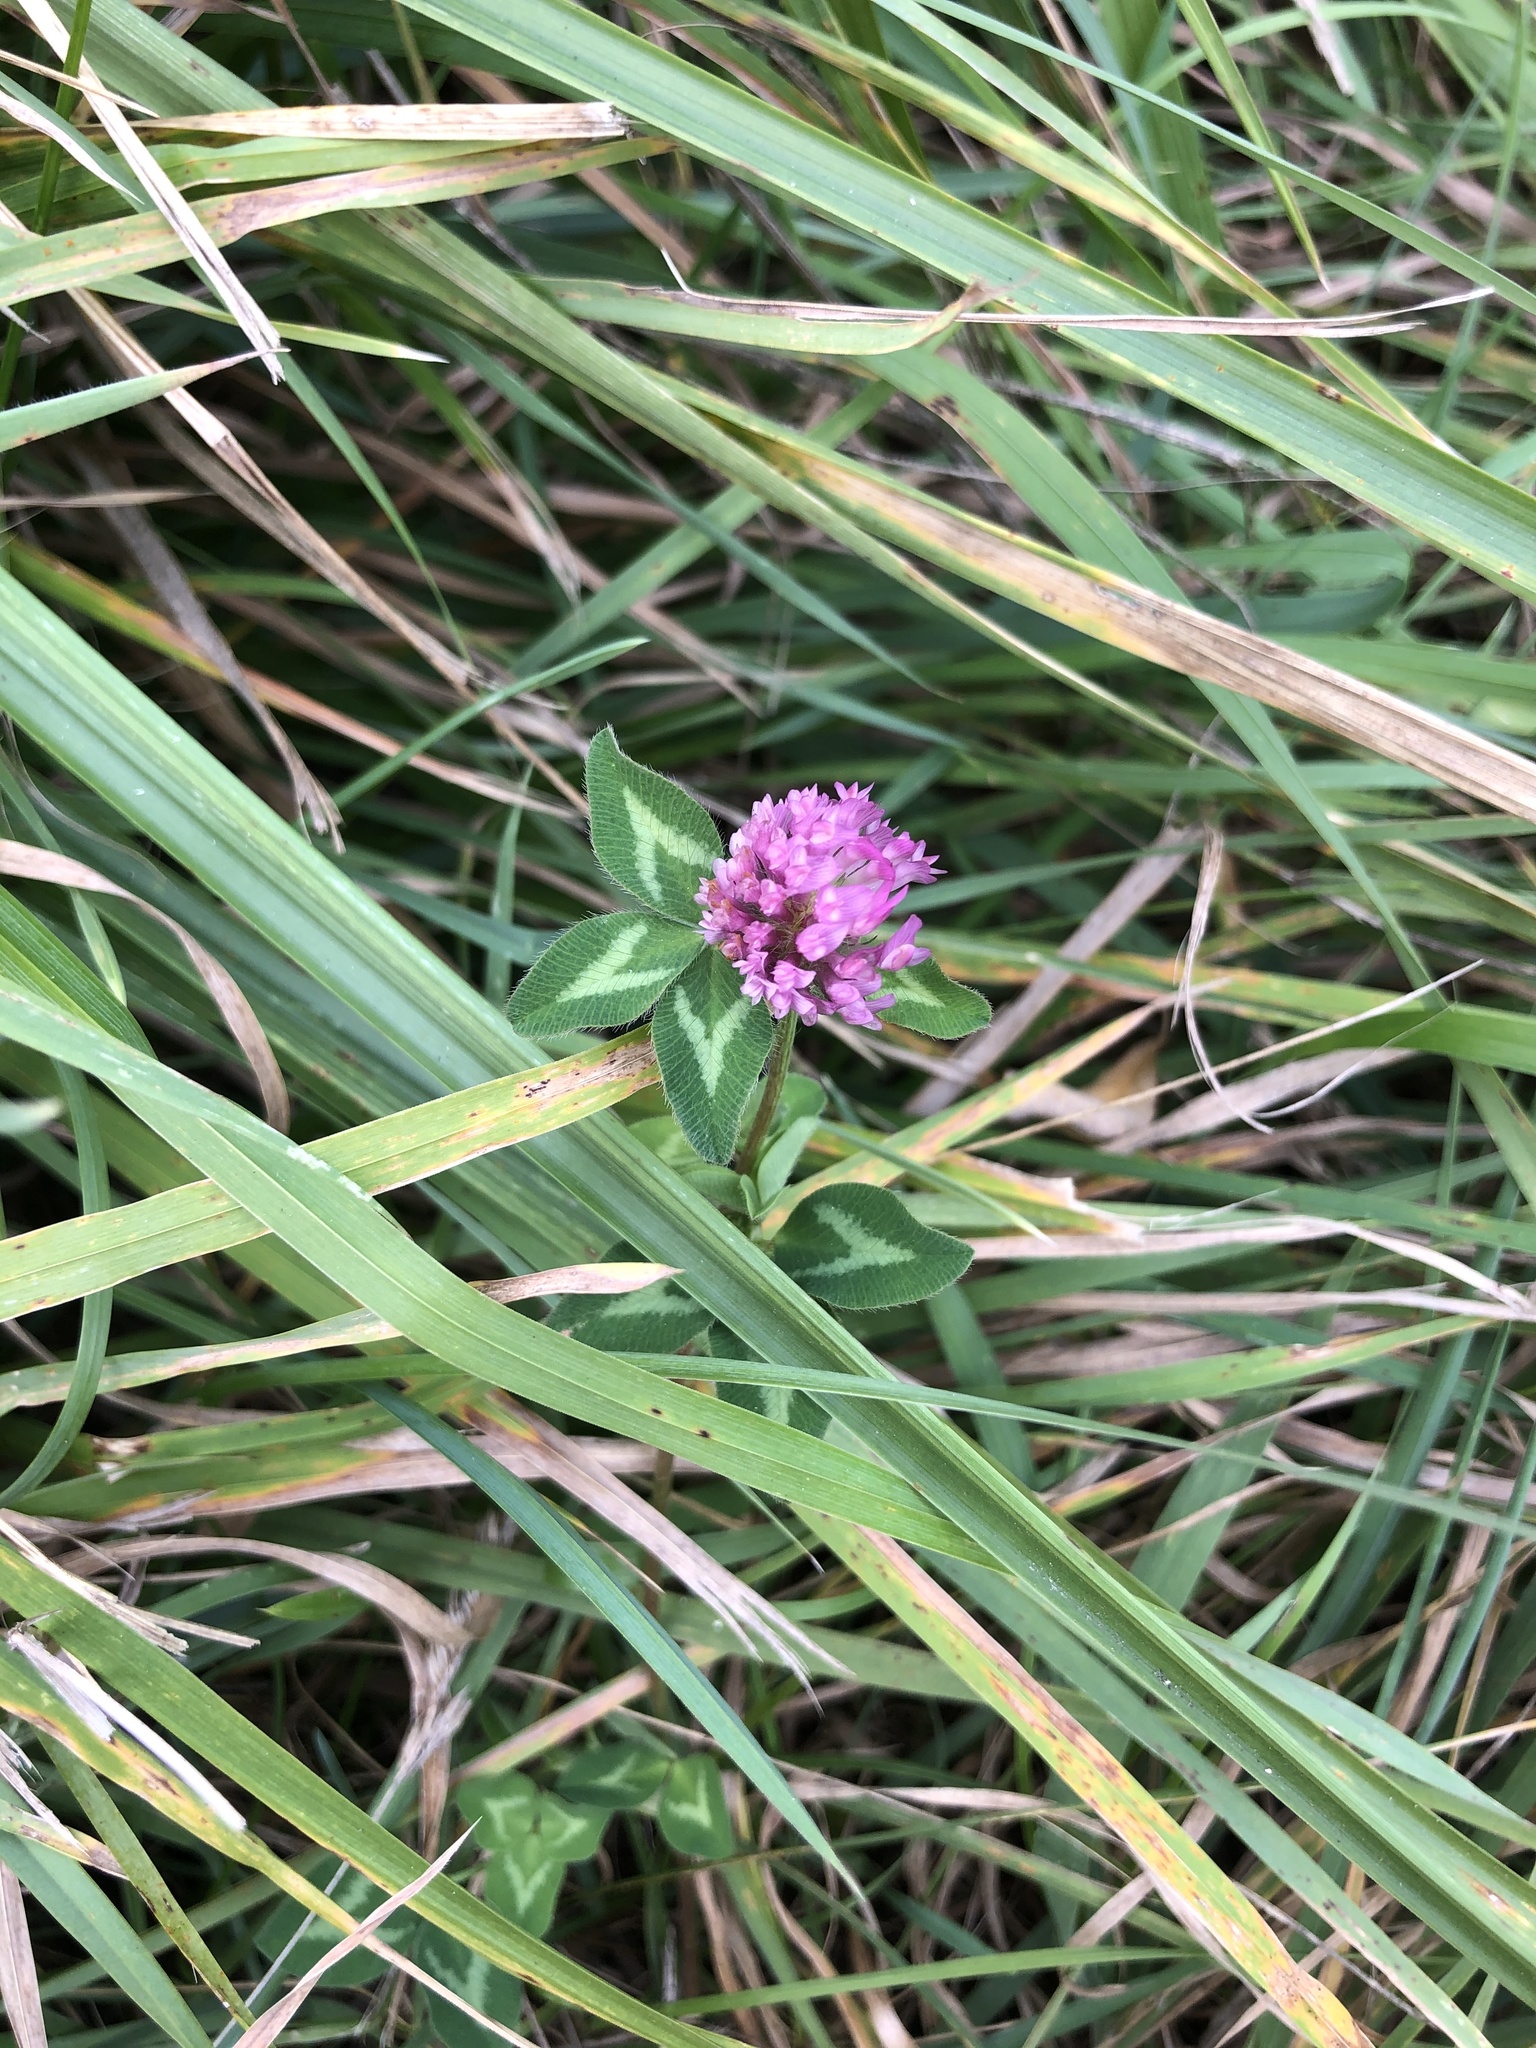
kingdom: Plantae
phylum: Tracheophyta
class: Magnoliopsida
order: Fabales
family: Fabaceae
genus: Trifolium
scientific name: Trifolium pratense
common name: Red clover
